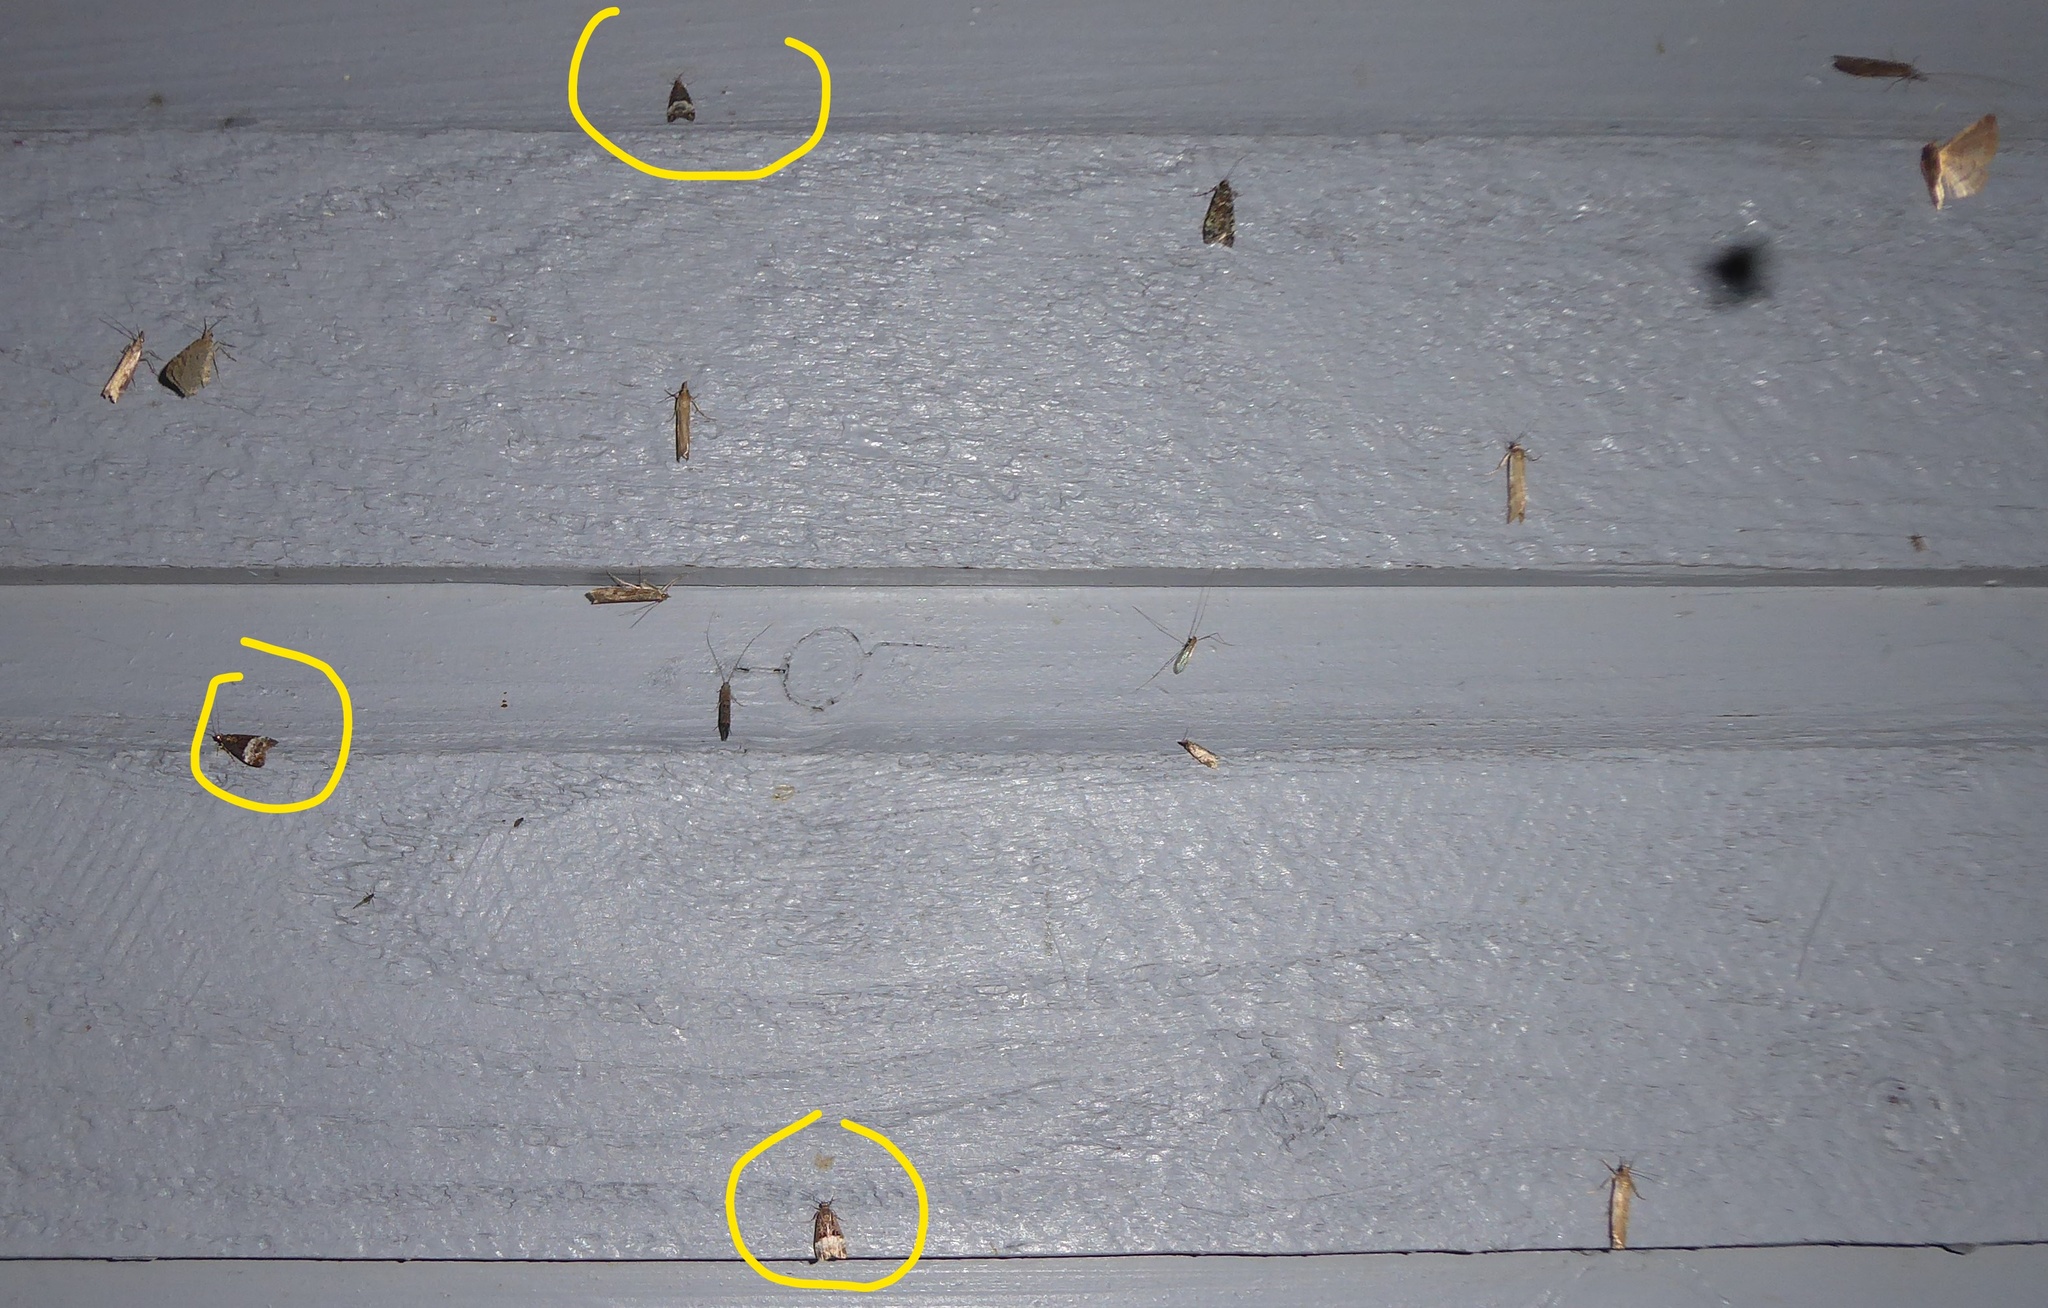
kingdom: Animalia
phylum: Arthropoda
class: Insecta
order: Lepidoptera
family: Crambidae
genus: Scoparia
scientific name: Scoparia minusculalis
